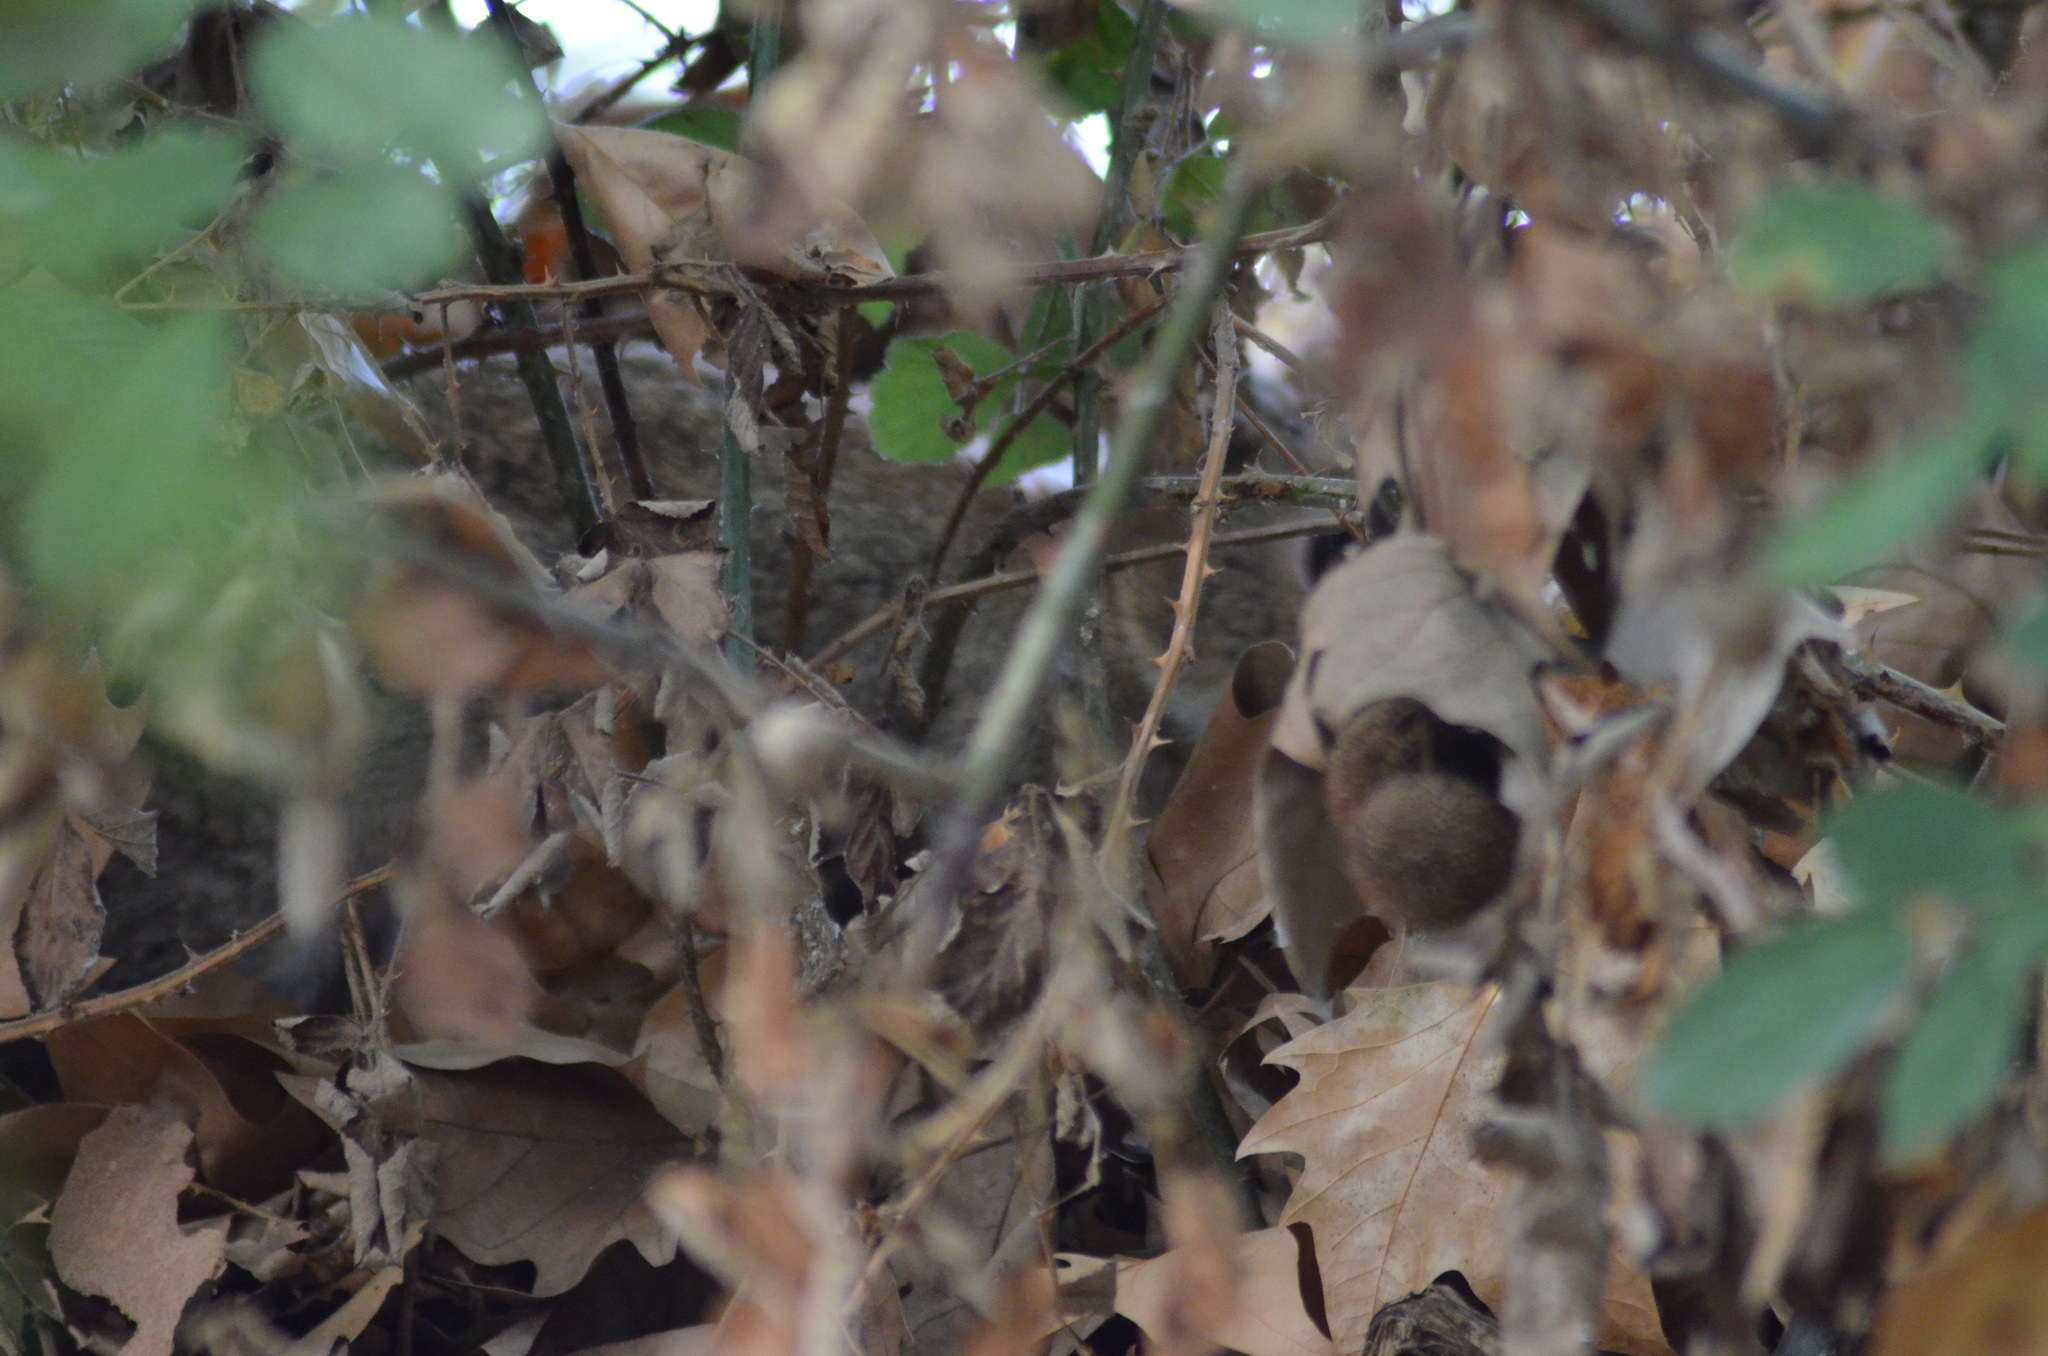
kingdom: Animalia
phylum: Chordata
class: Mammalia
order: Lagomorpha
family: Leporidae
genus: Oryctolagus
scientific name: Oryctolagus cuniculus
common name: European rabbit
